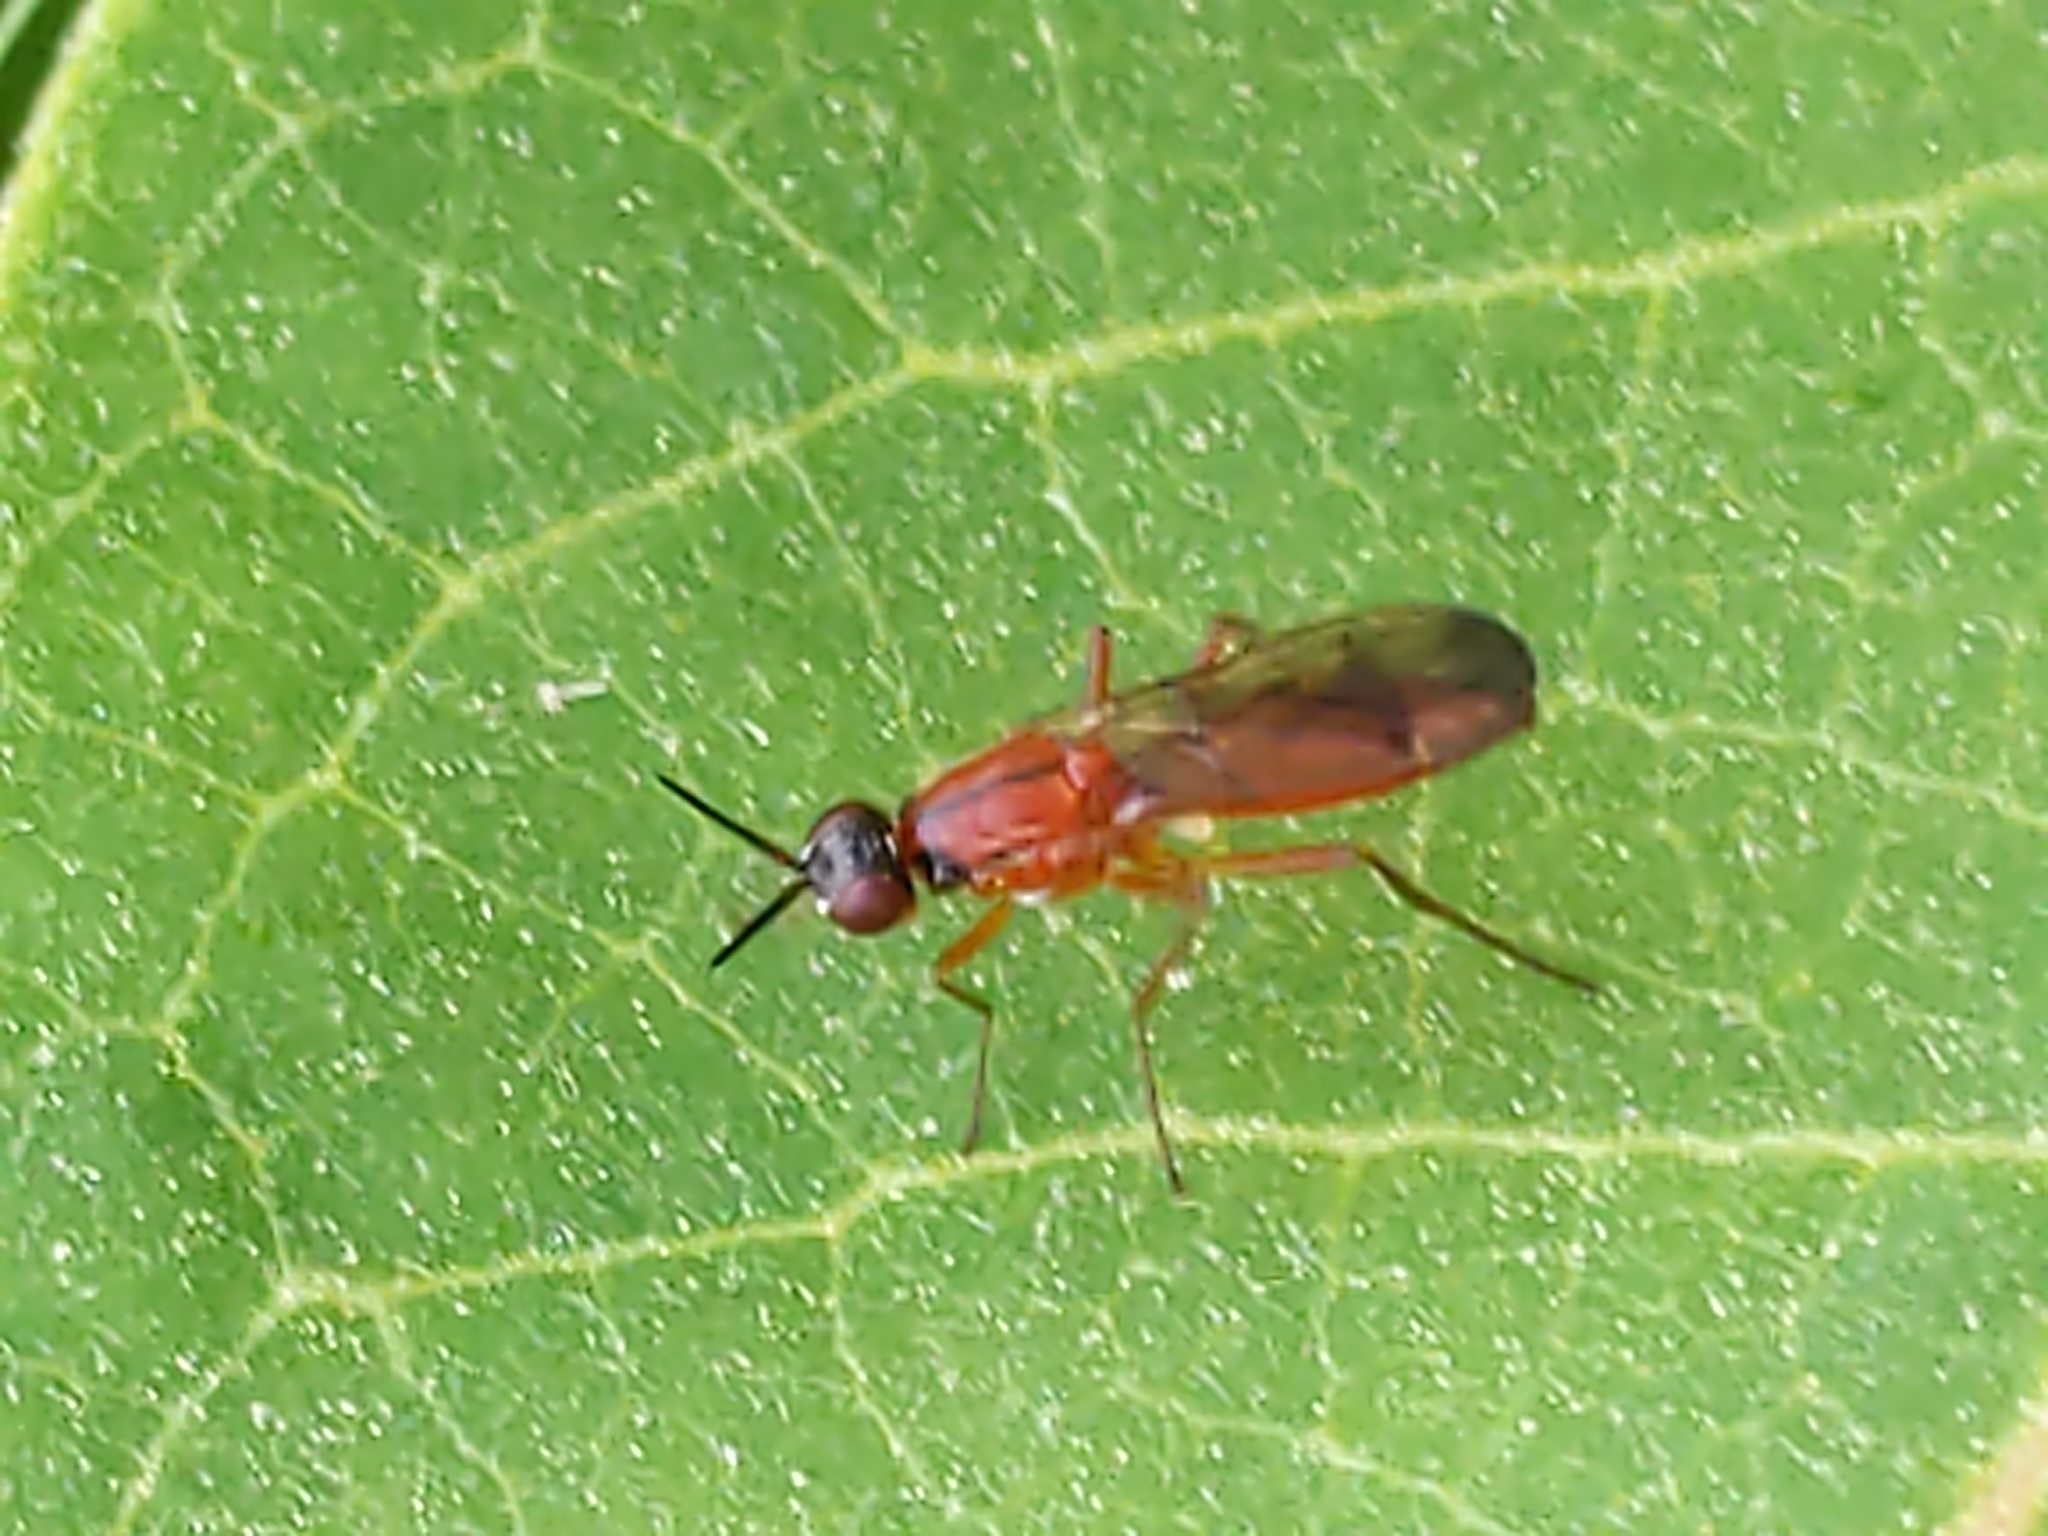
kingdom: Animalia
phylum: Arthropoda
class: Insecta
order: Diptera
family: Psilidae
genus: Loxocera
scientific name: Loxocera
